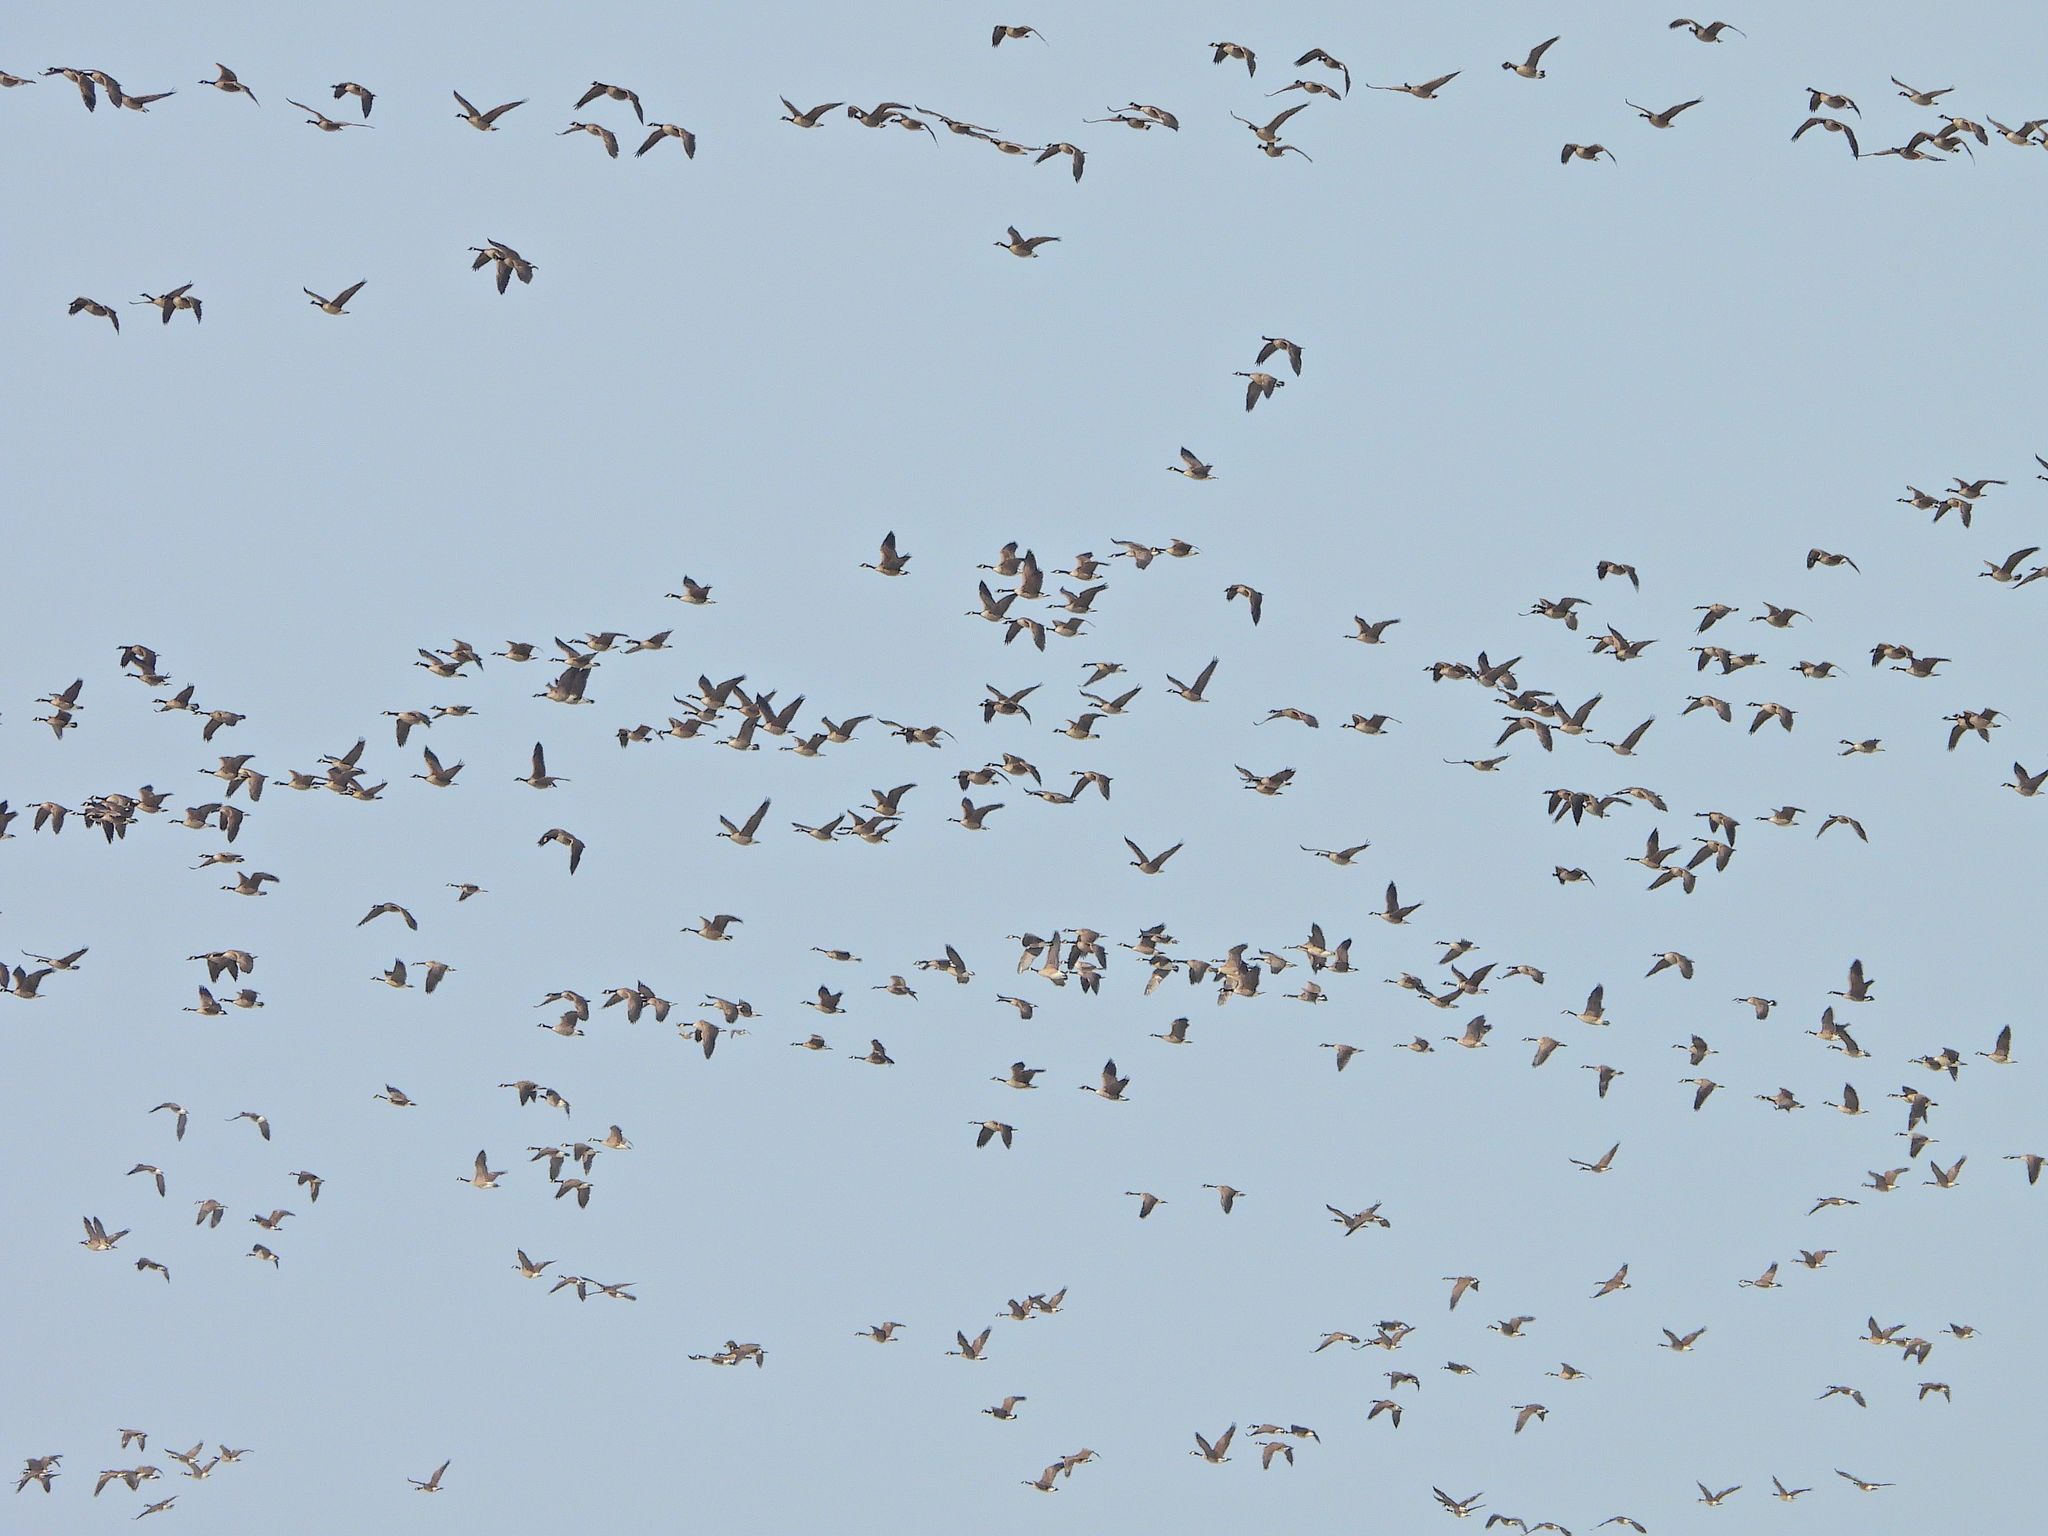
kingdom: Animalia
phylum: Chordata
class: Aves
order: Anseriformes
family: Anatidae
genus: Branta
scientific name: Branta canadensis
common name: Canada goose
